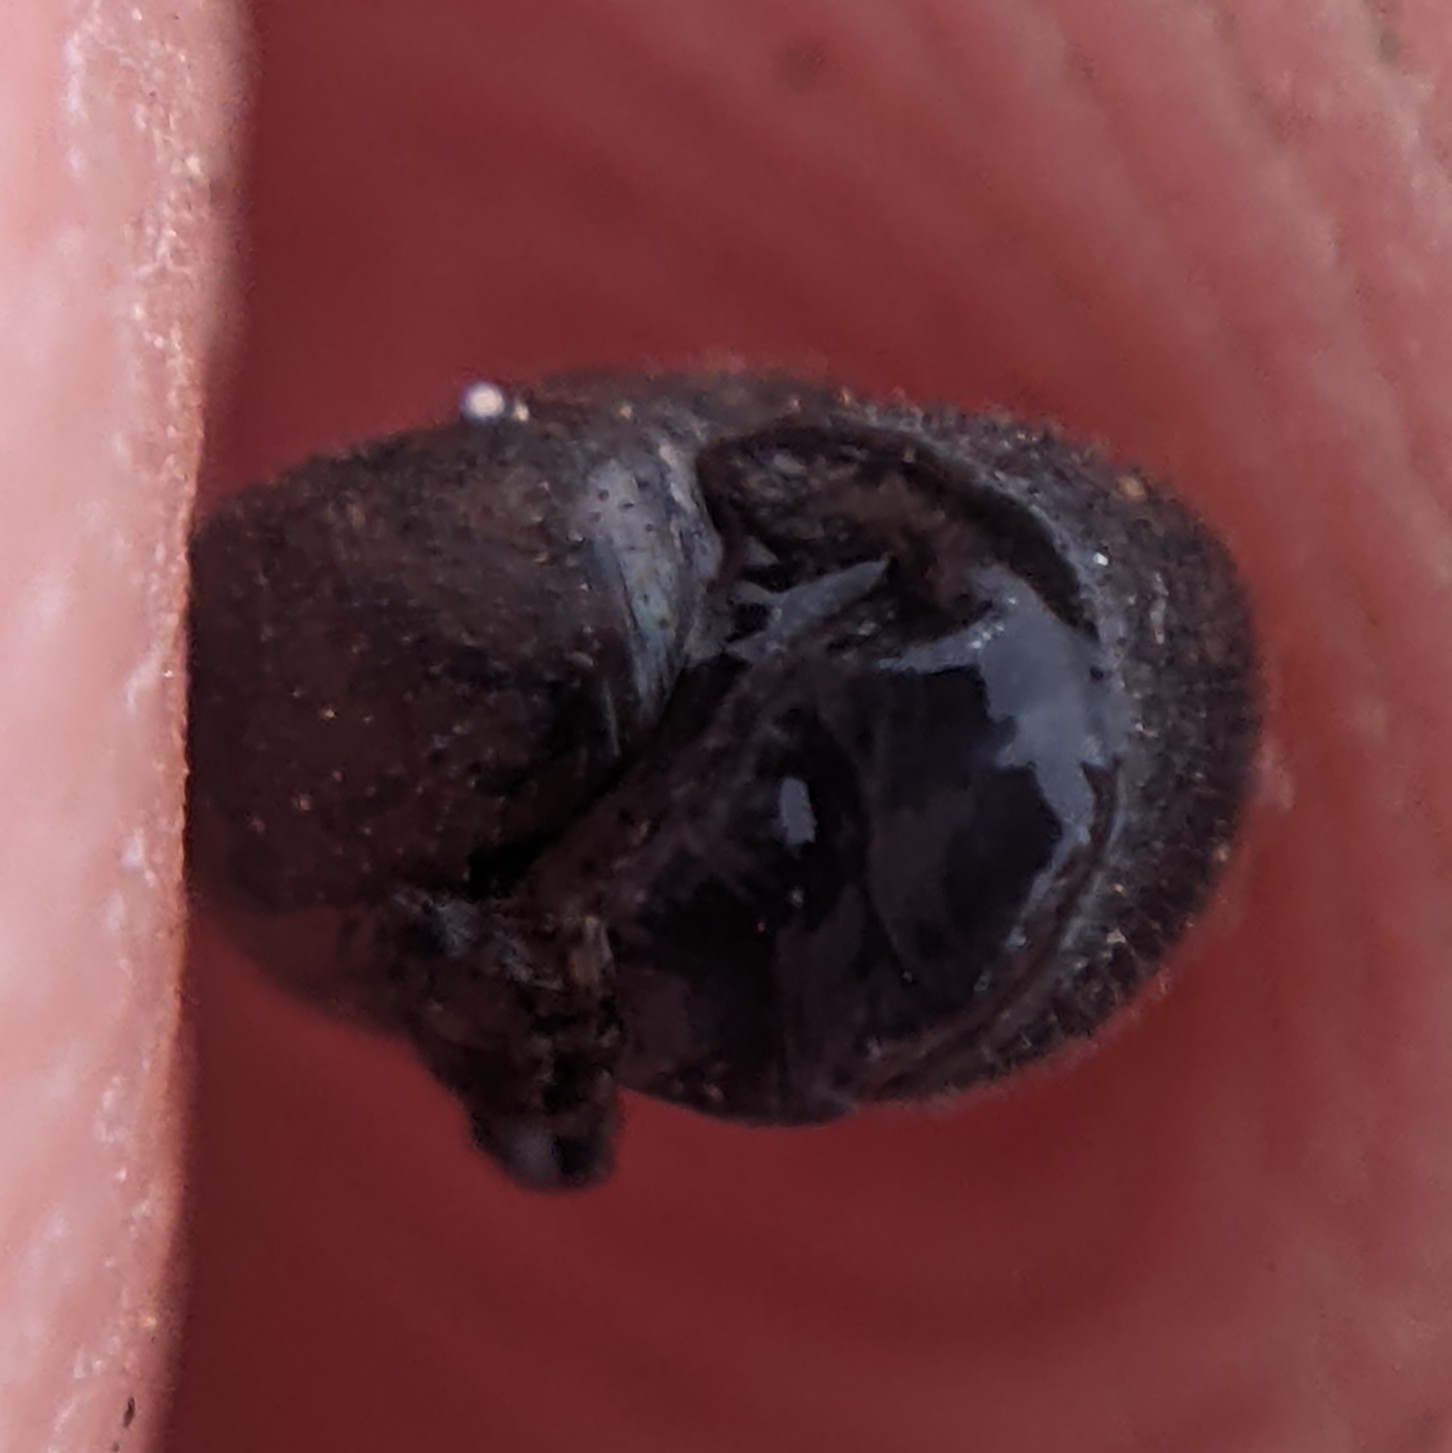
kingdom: Animalia
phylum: Mollusca
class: Gastropoda
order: Stylommatophora
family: Geomitridae
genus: Xerotricha
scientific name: Xerotricha conspurcata
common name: Snail
